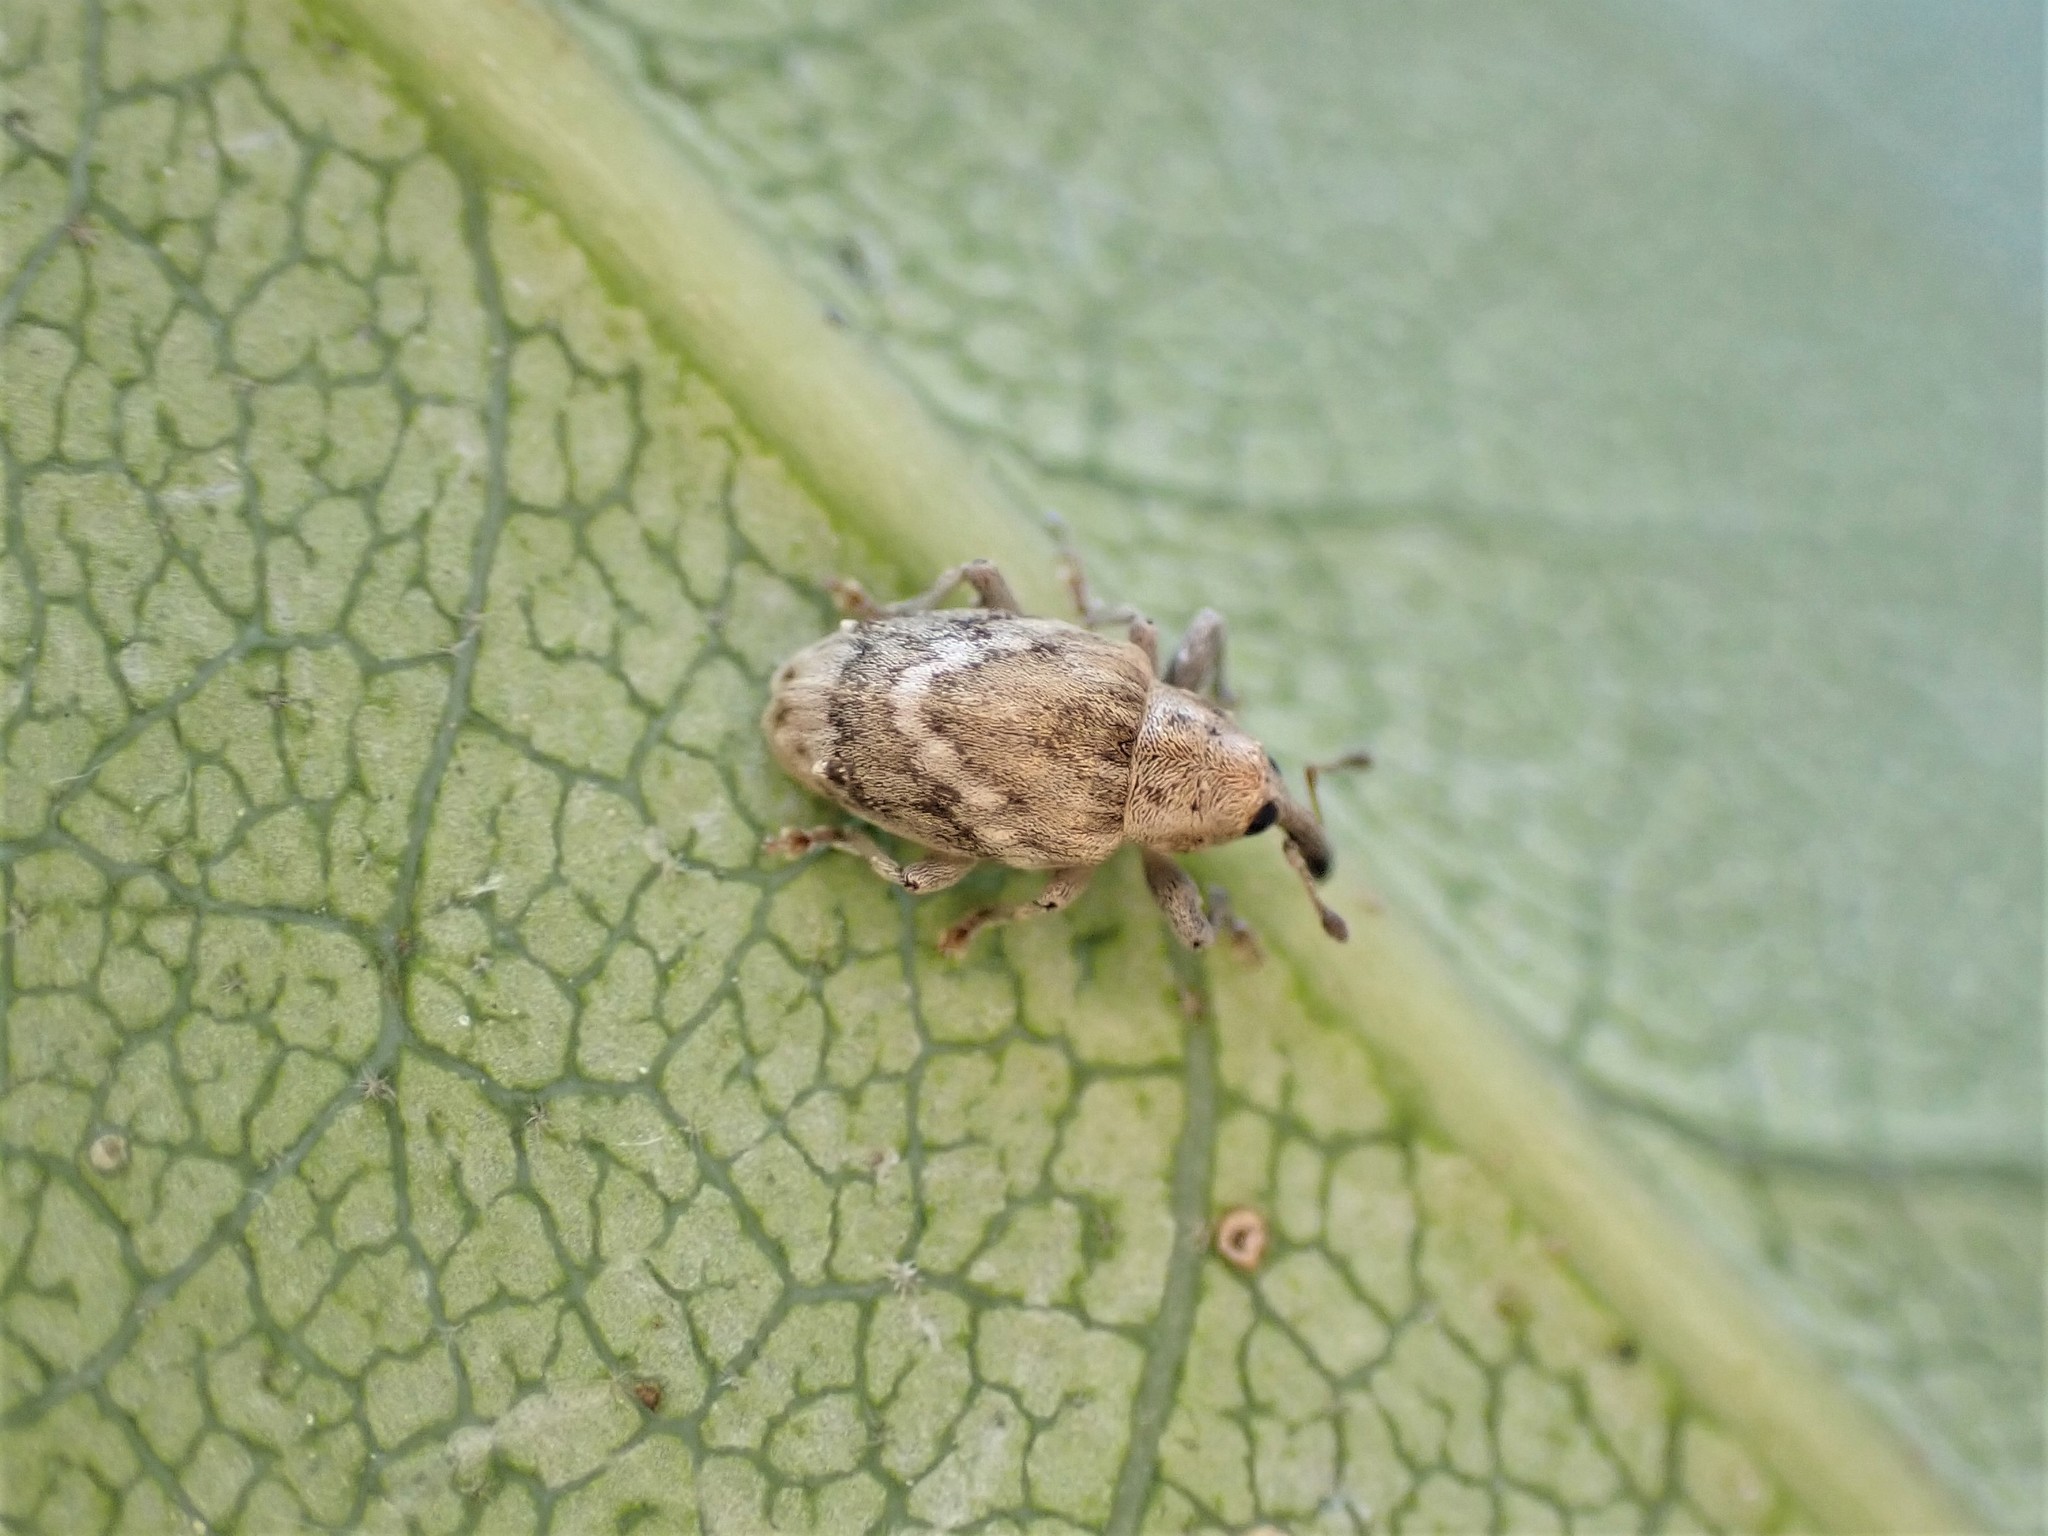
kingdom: Animalia
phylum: Arthropoda
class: Insecta
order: Coleoptera
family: Curculionidae
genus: Aneuma
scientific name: Aneuma compta
